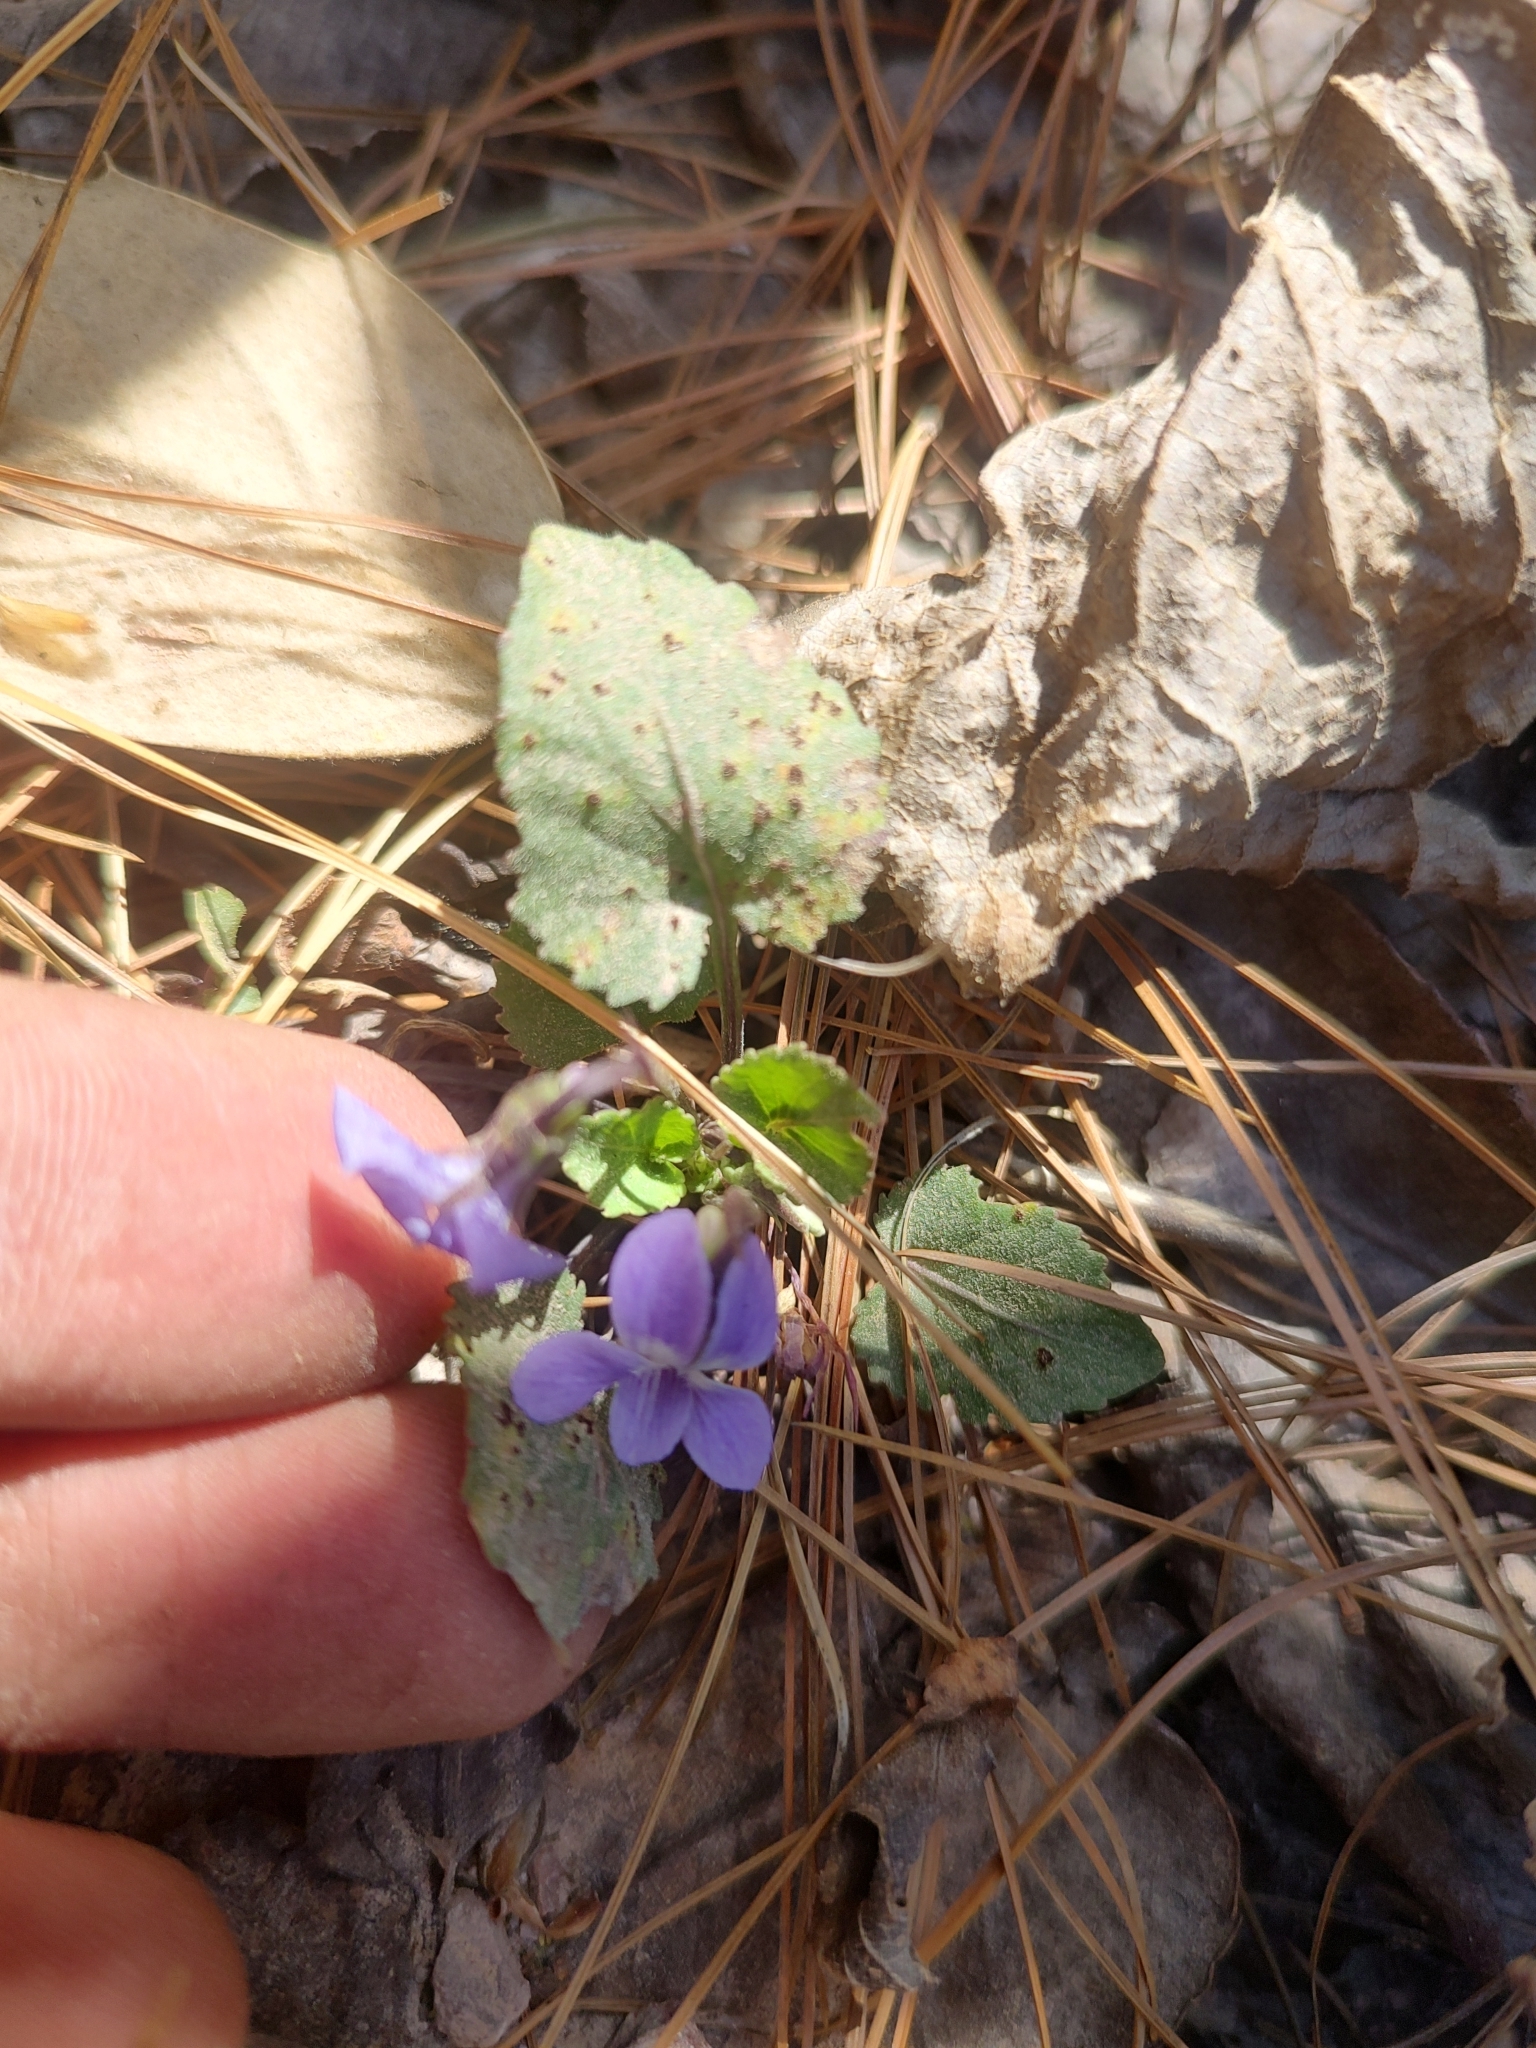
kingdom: Plantae
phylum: Tracheophyta
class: Magnoliopsida
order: Malpighiales
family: Violaceae
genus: Viola
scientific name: Viola umbraticola
